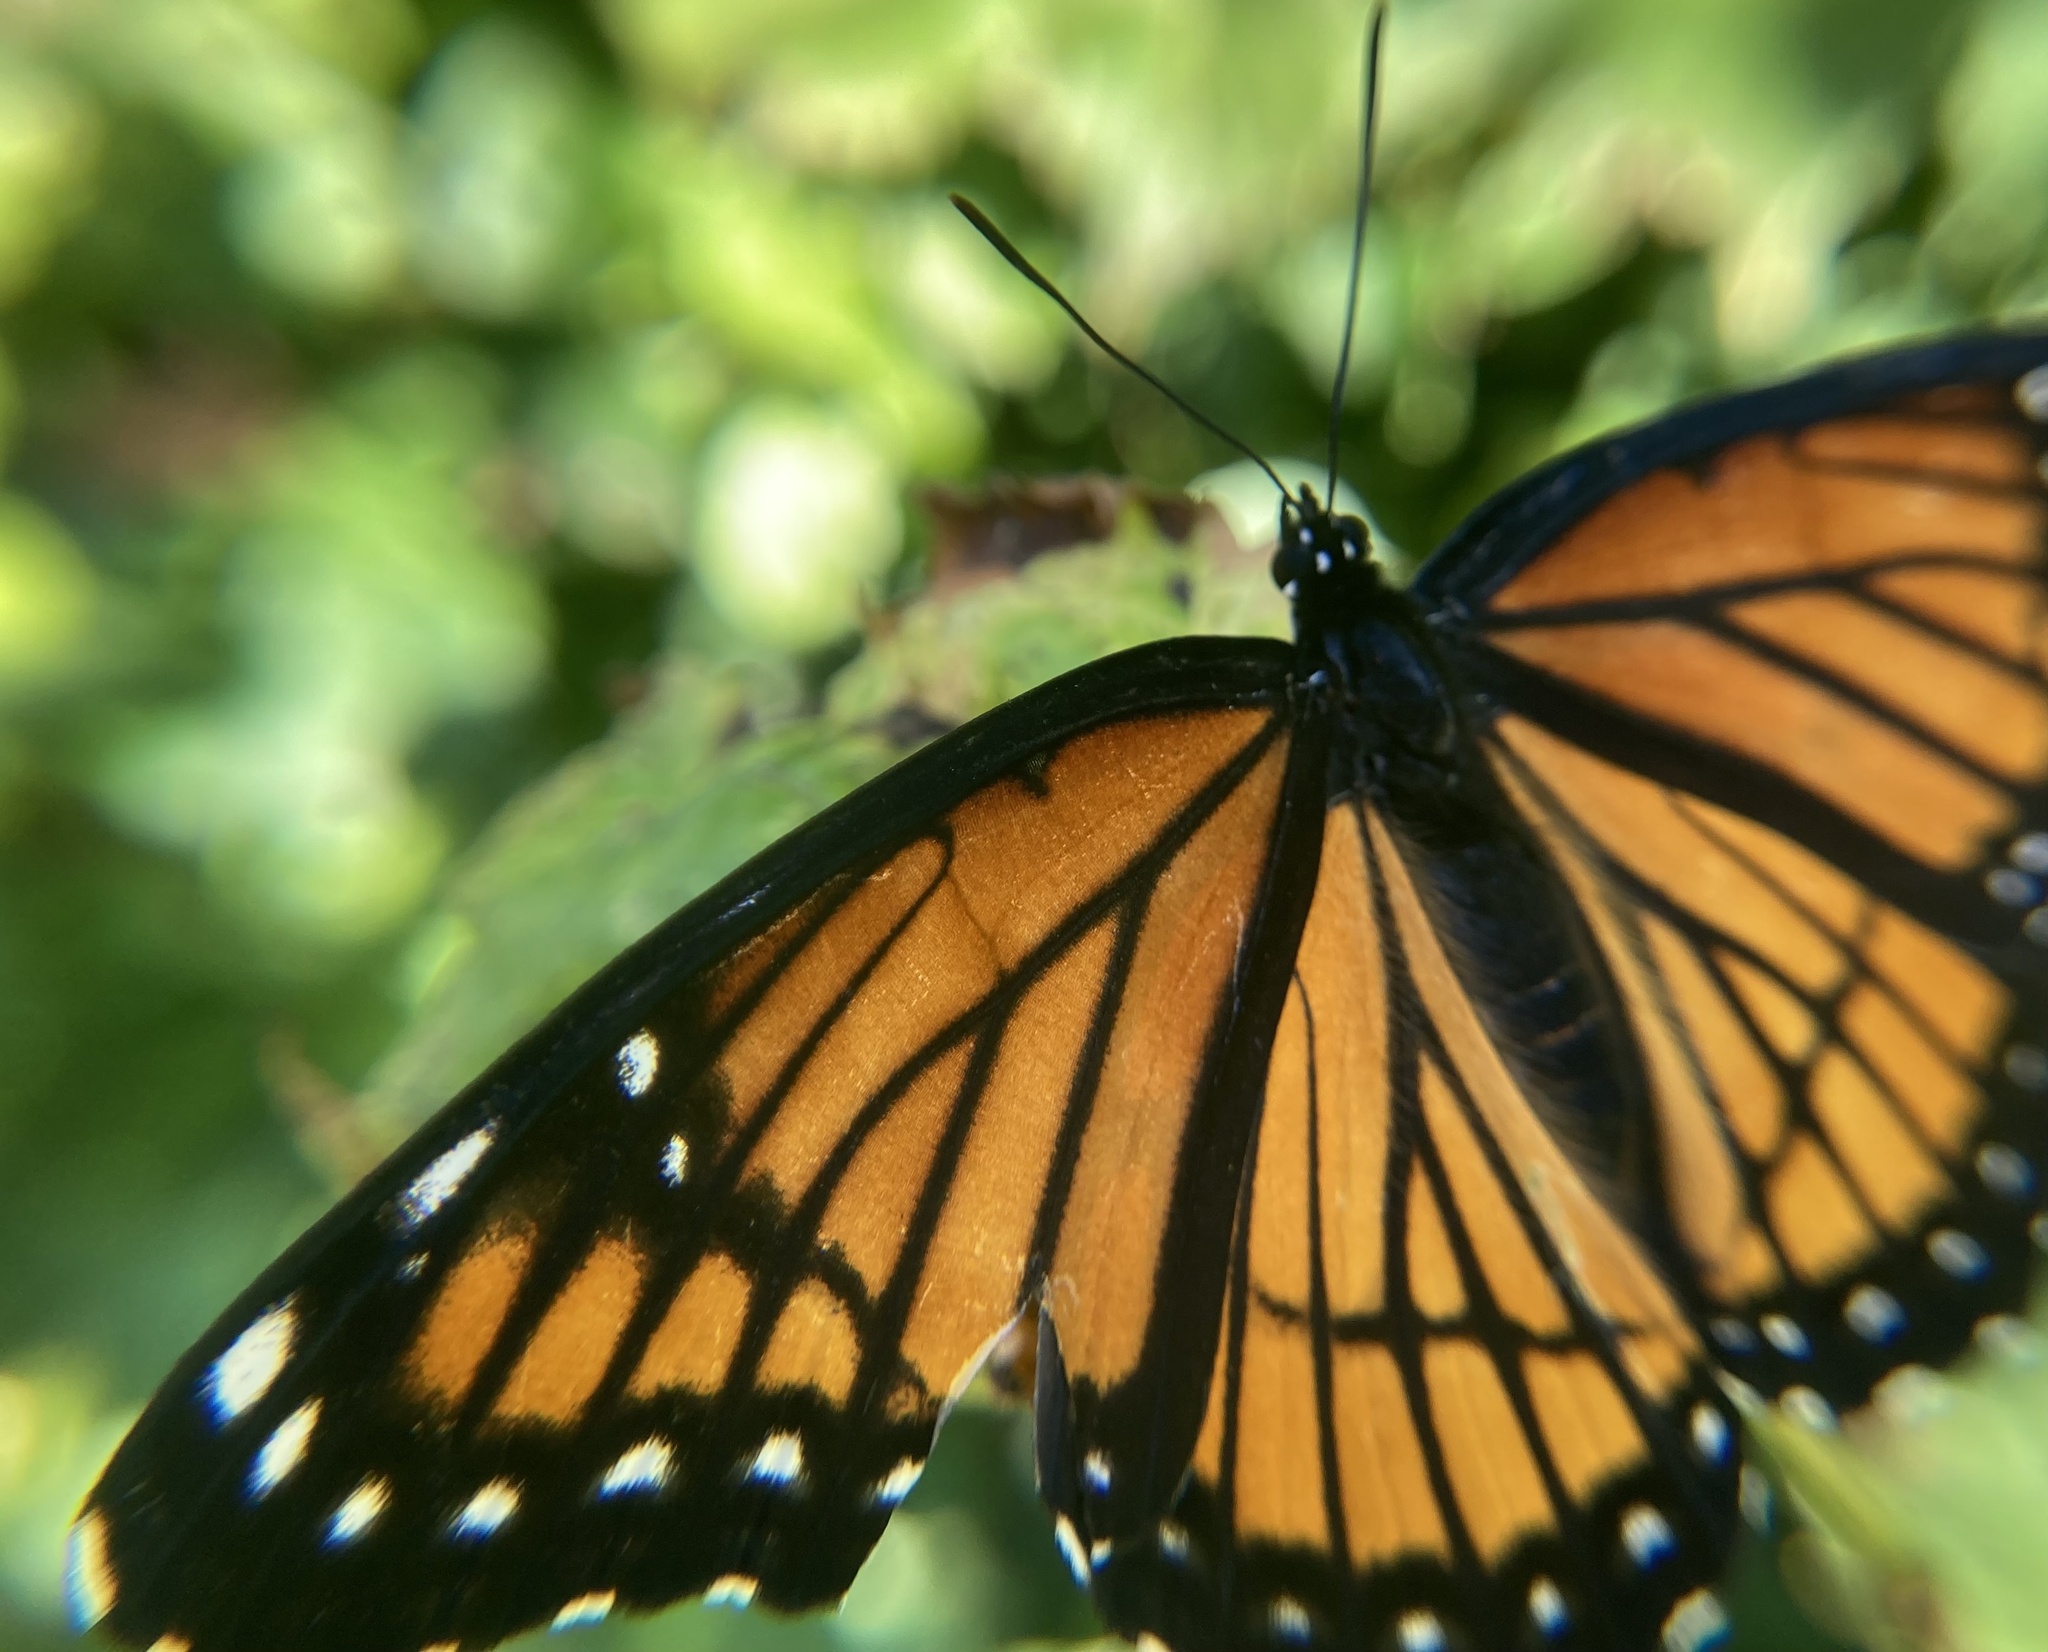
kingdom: Animalia
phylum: Arthropoda
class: Insecta
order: Lepidoptera
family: Nymphalidae
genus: Limenitis
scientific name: Limenitis archippus
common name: Viceroy
